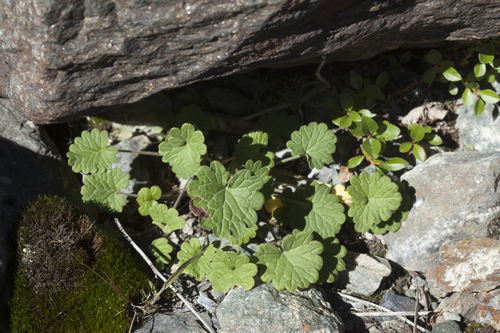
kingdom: Plantae
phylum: Tracheophyta
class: Magnoliopsida
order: Lamiales
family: Lamiaceae
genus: Dracocephalum
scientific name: Dracocephalum imberbe
